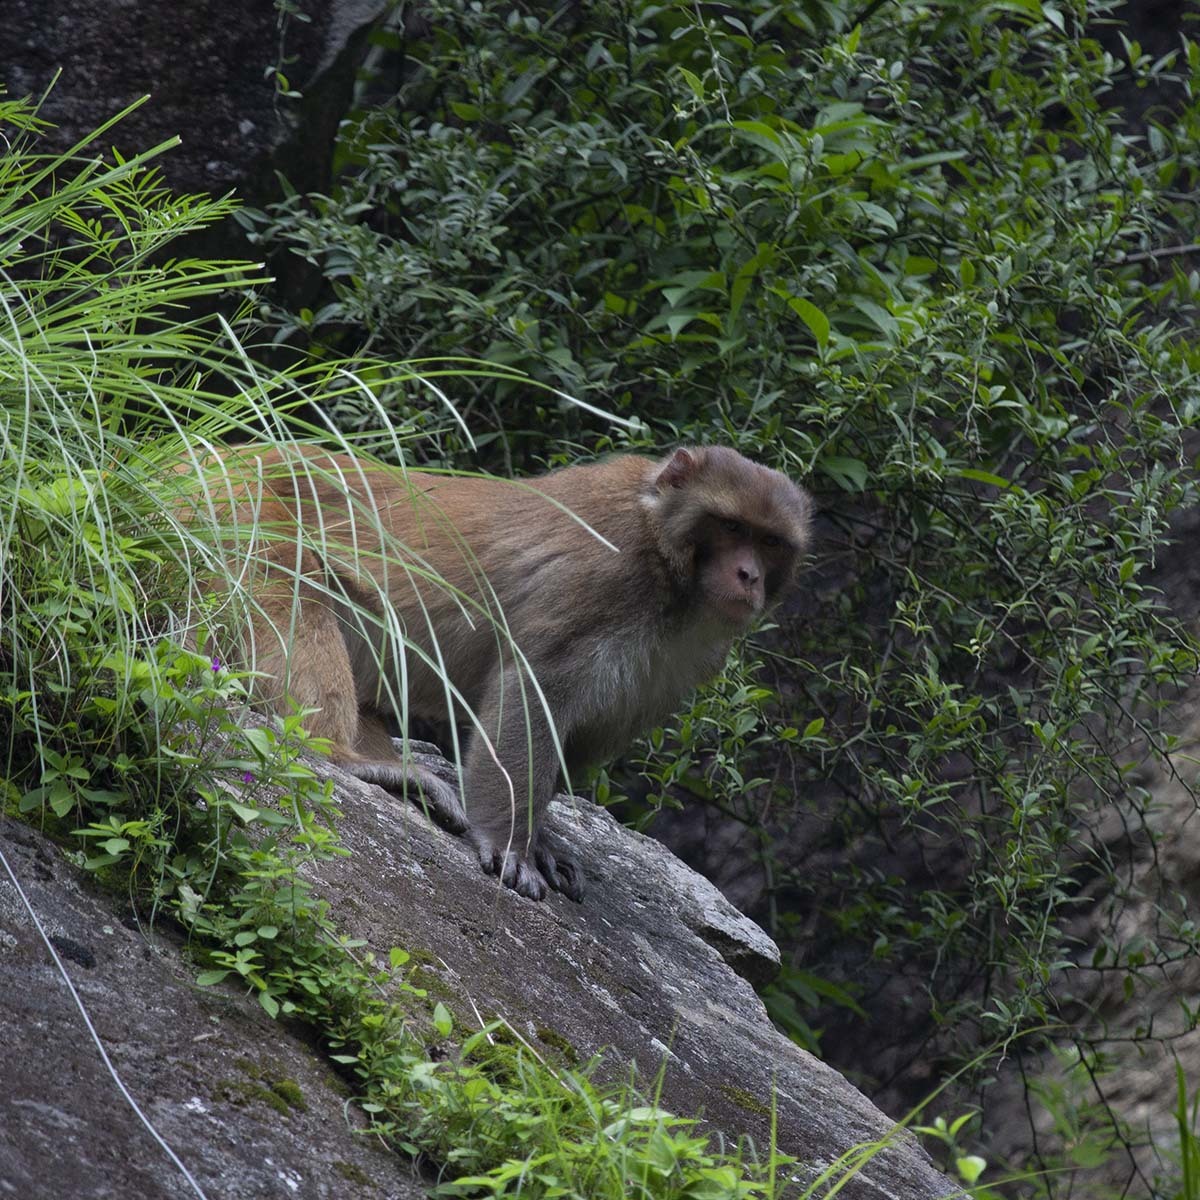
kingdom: Animalia
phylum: Chordata
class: Mammalia
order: Primates
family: Cercopithecidae
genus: Macaca
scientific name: Macaca mulatta
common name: Rhesus monkey
